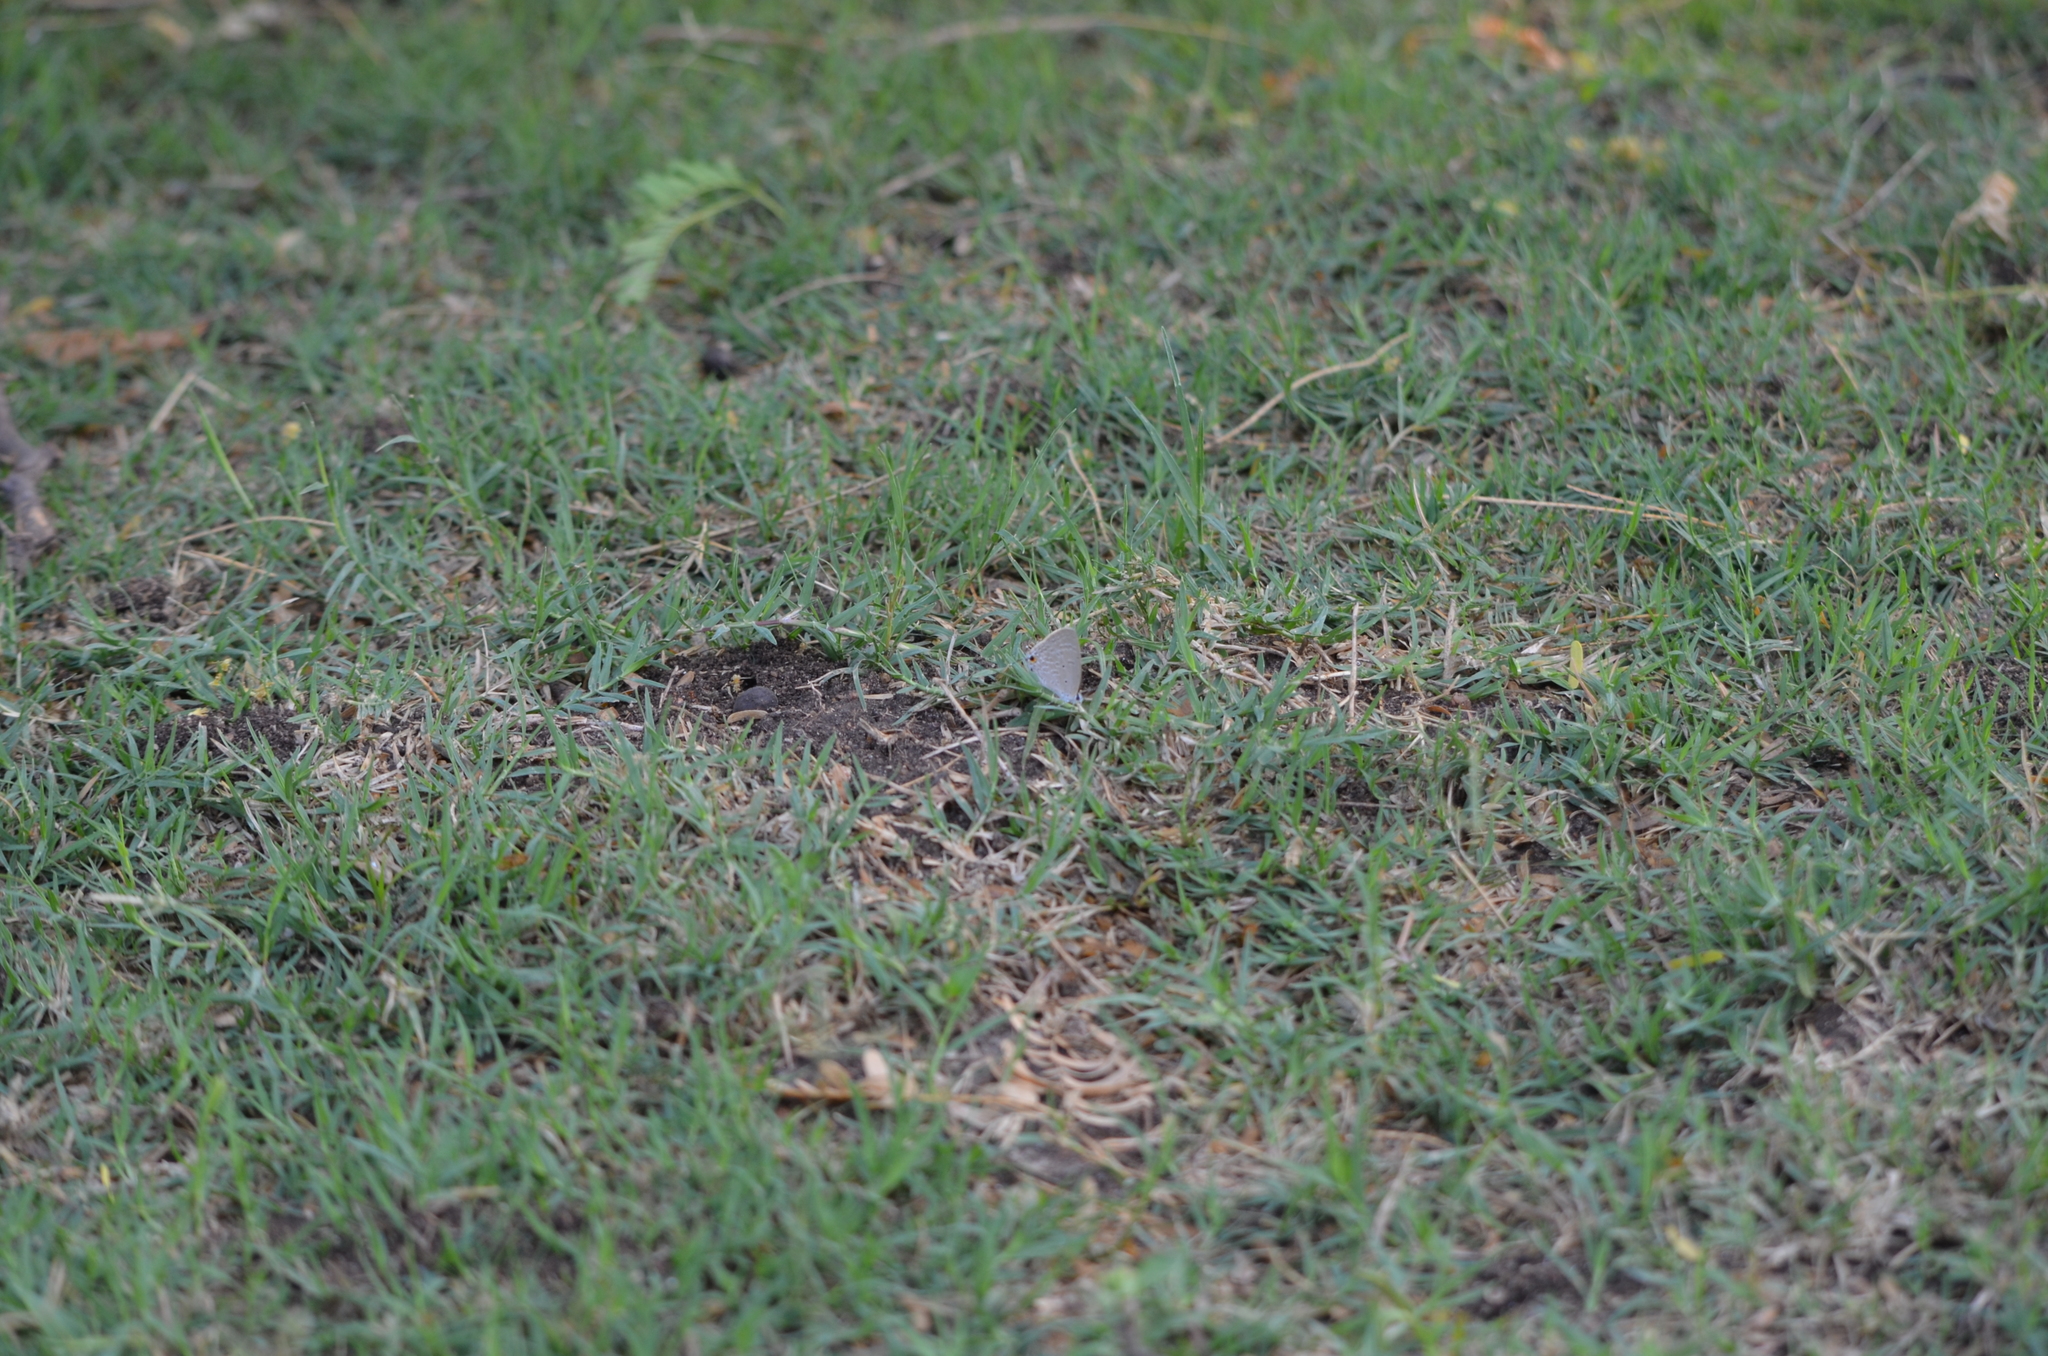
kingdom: Animalia
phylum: Arthropoda
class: Insecta
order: Lepidoptera
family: Lycaenidae
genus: Catochrysops
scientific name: Catochrysops strabo
